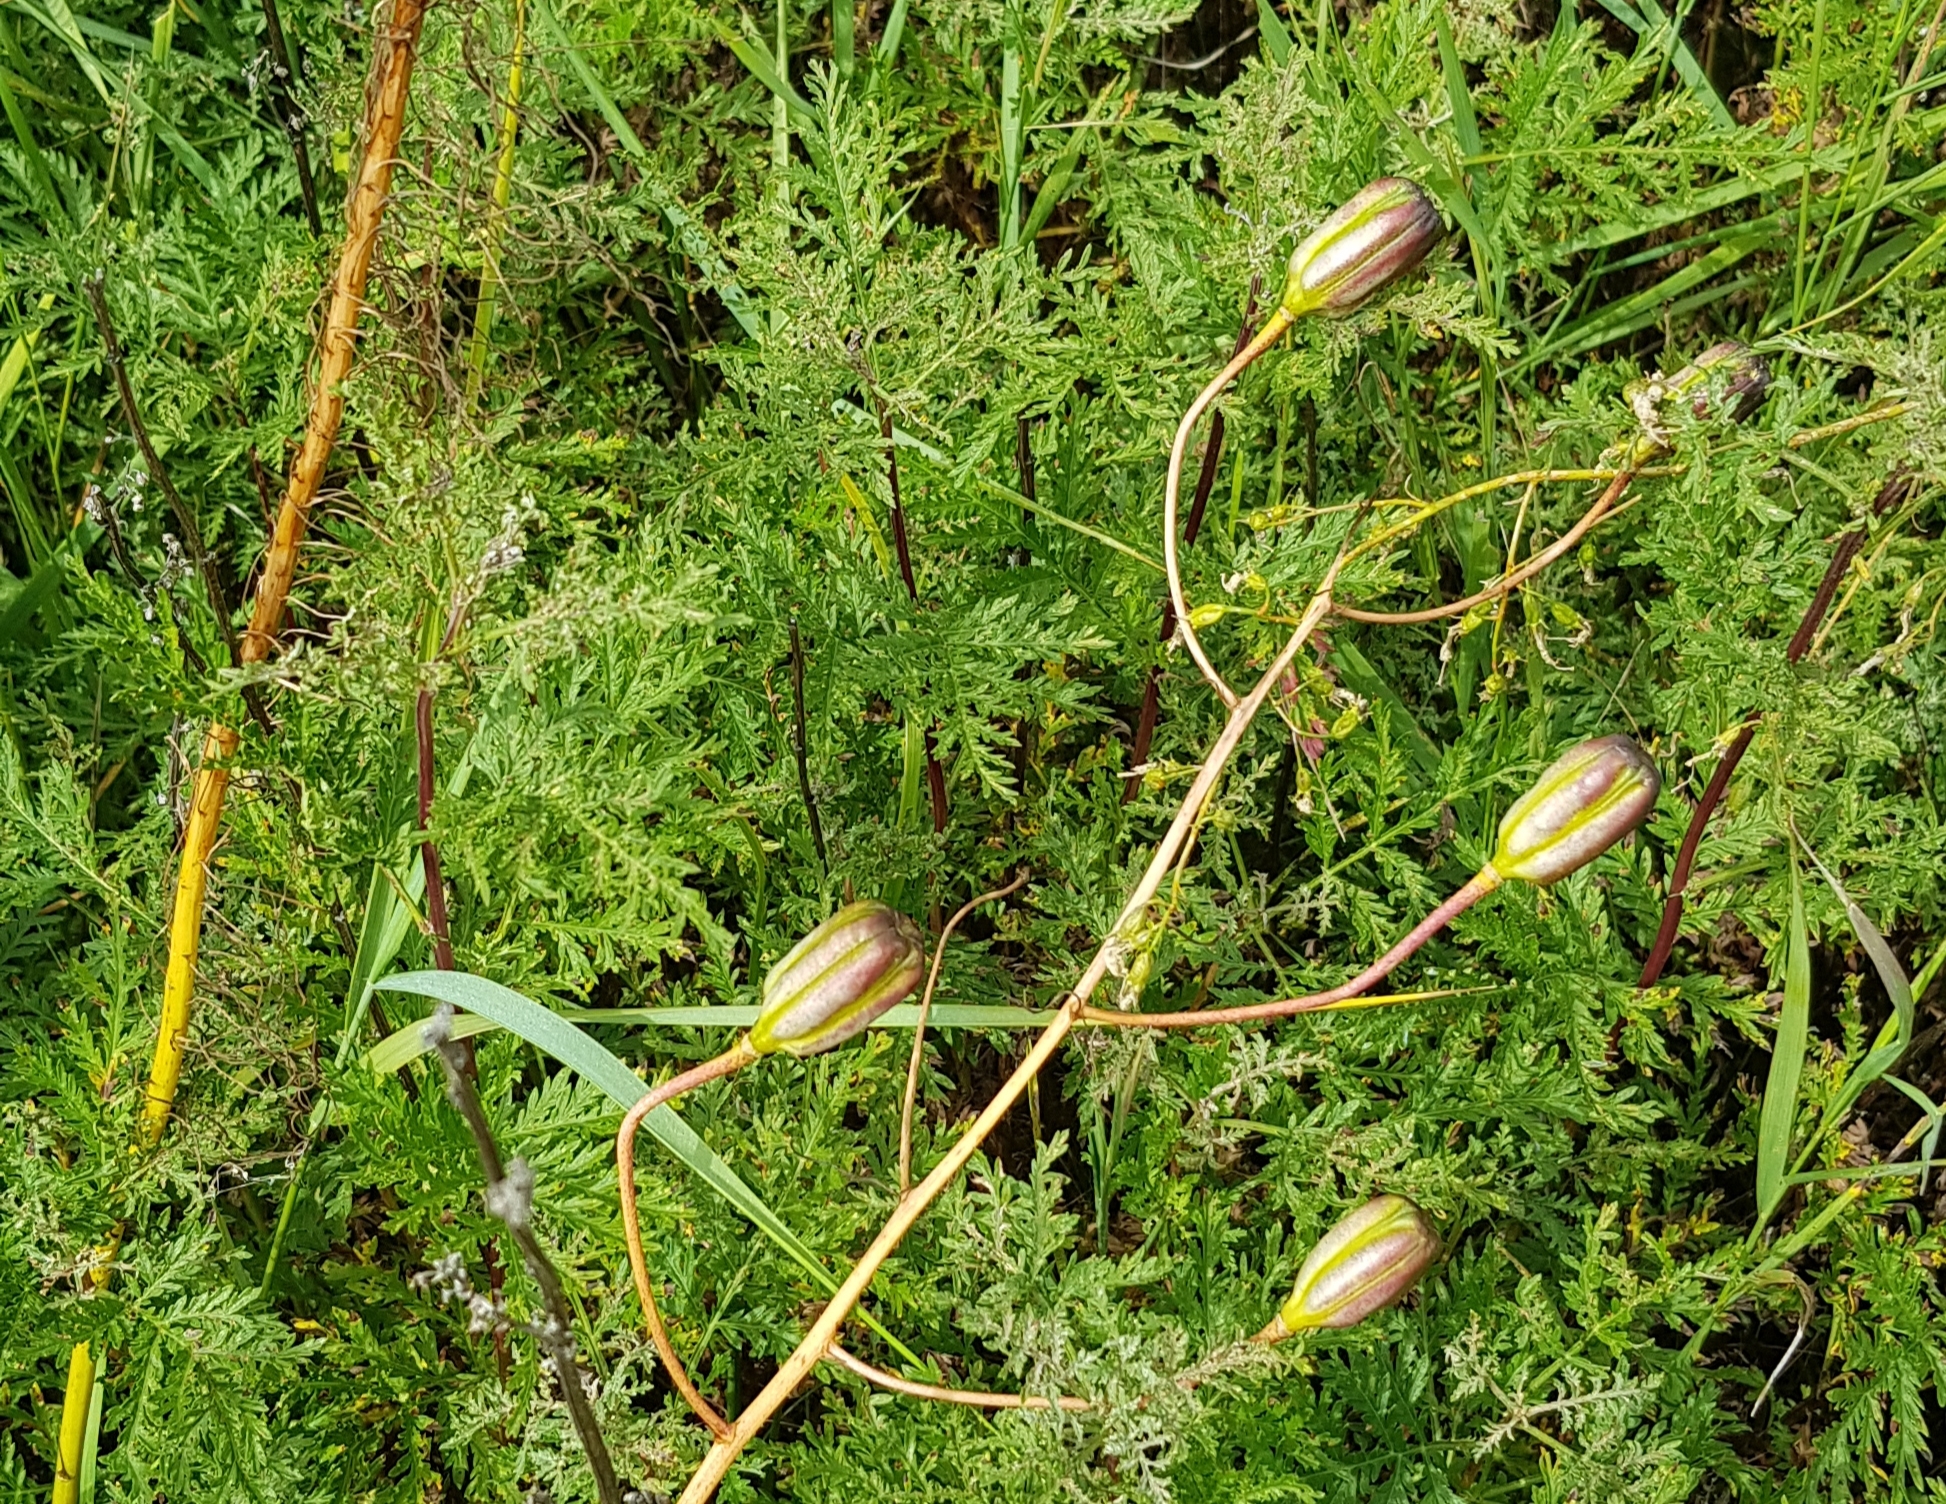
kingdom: Plantae
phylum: Tracheophyta
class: Liliopsida
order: Liliales
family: Liliaceae
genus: Lilium
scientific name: Lilium pumilum
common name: Coral lily
